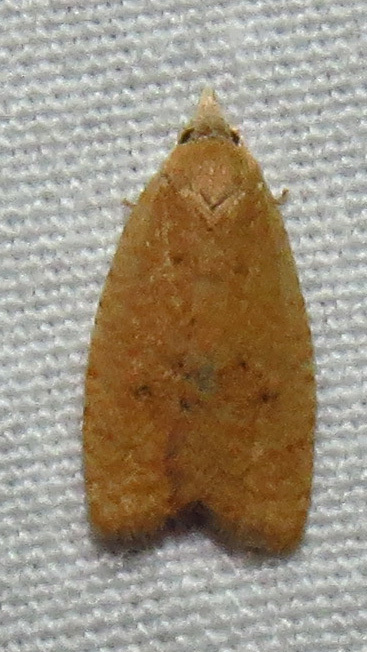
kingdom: Animalia
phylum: Arthropoda
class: Insecta
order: Lepidoptera
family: Tortricidae
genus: Sparganothoides
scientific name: Sparganothoides lentiginosana
